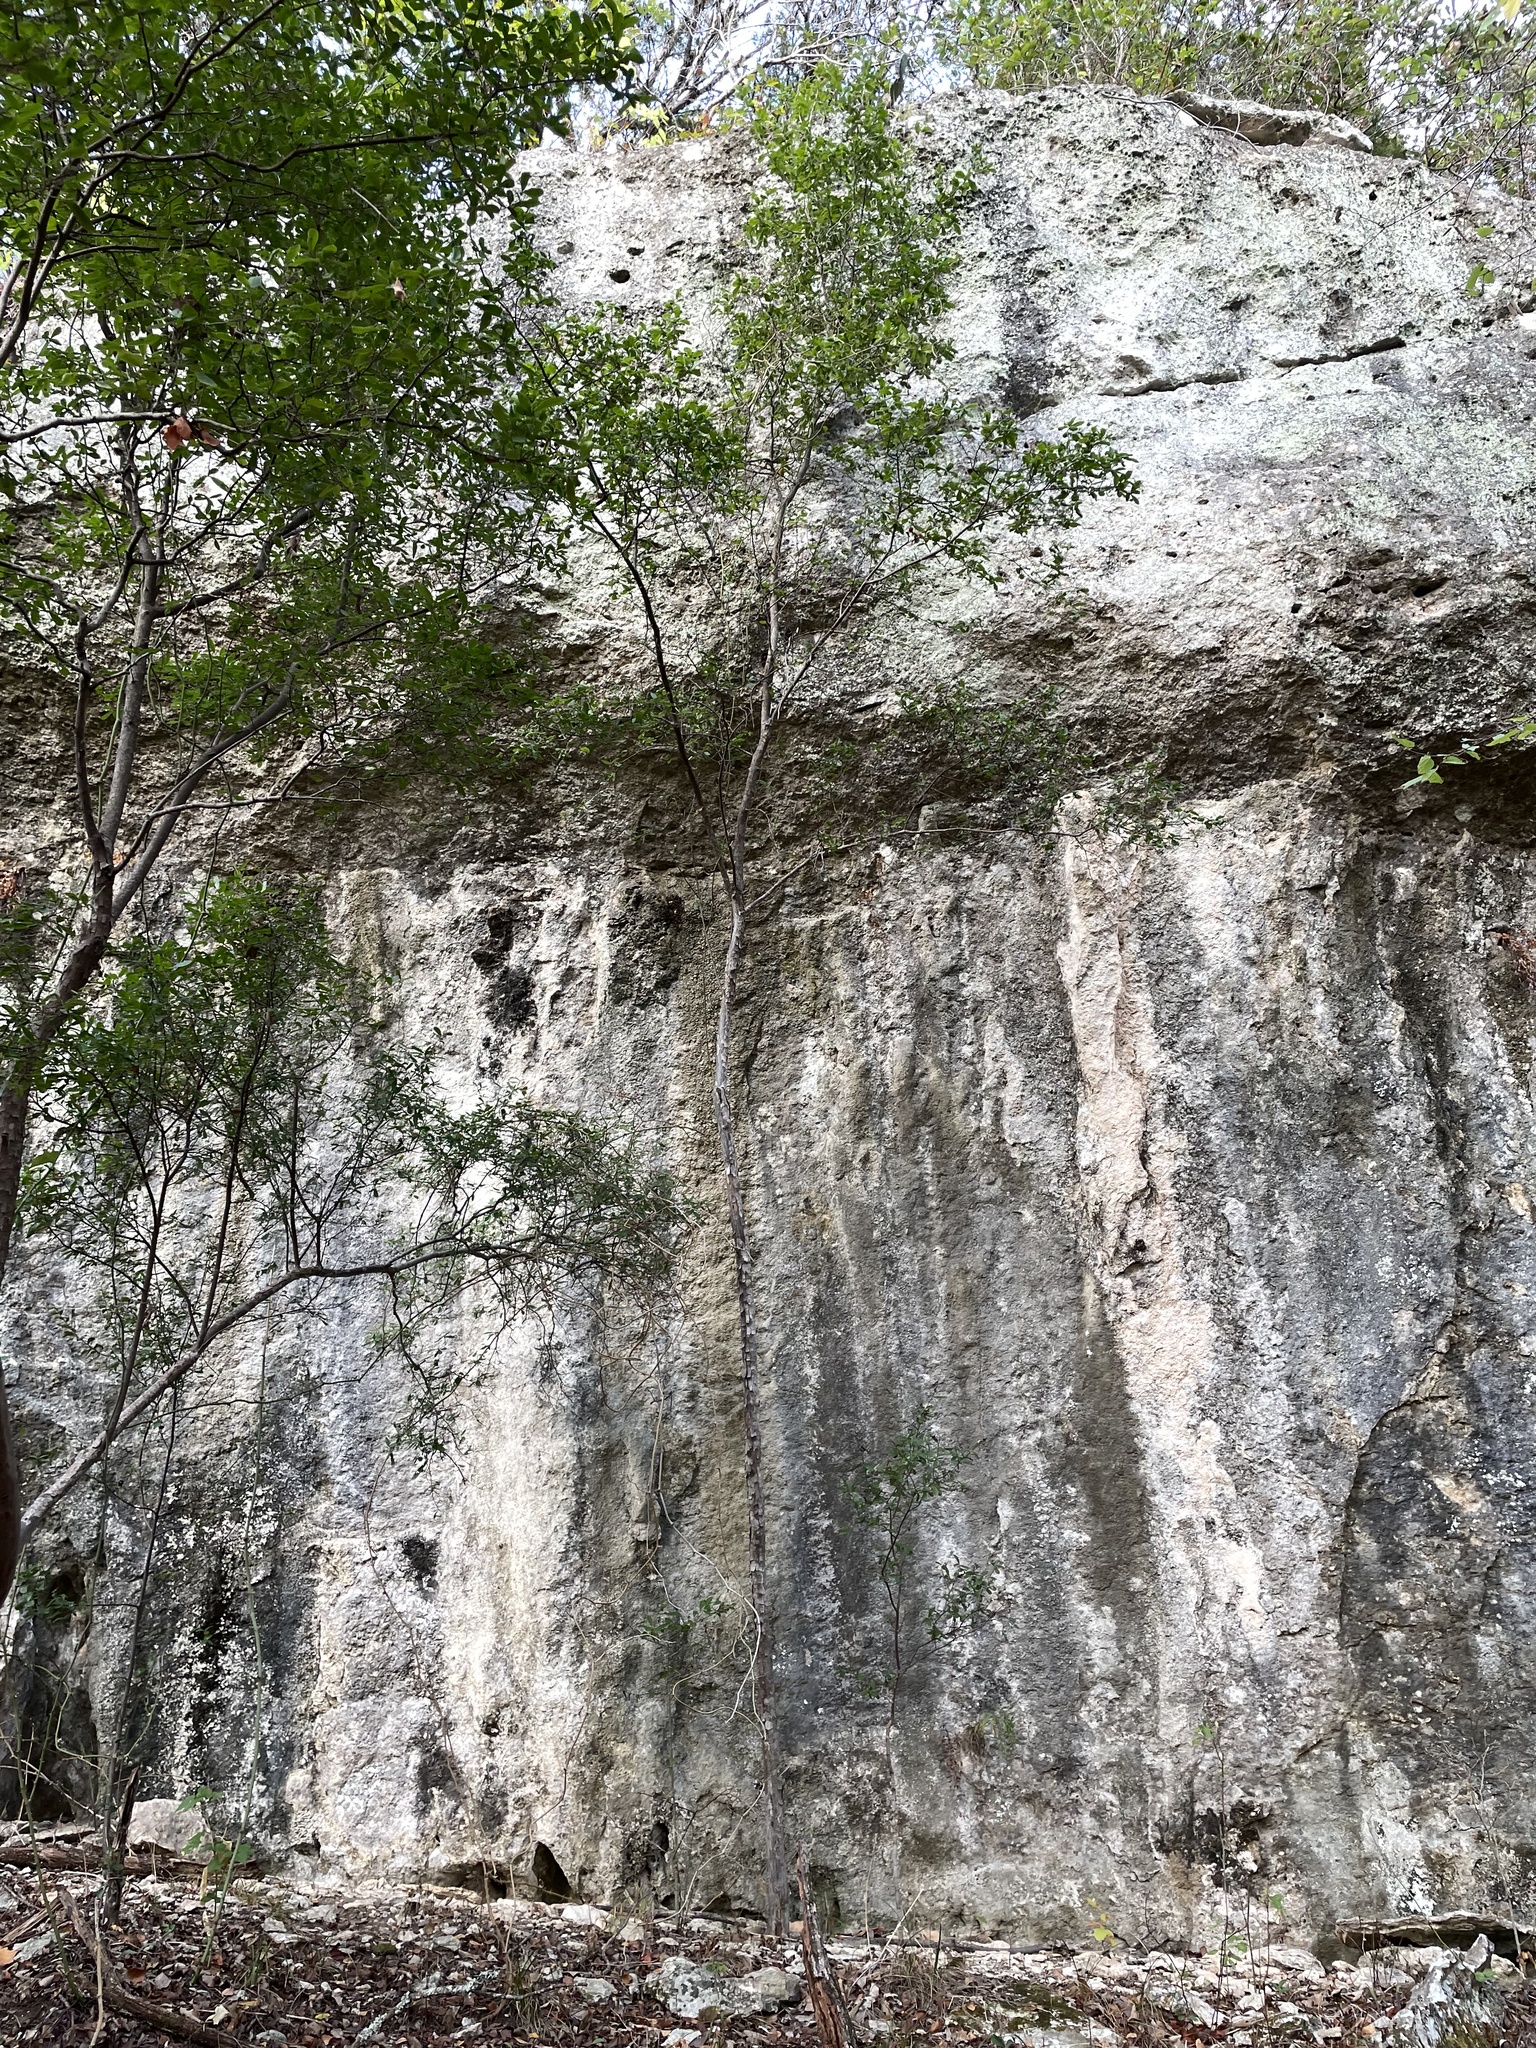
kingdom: Plantae
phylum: Tracheophyta
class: Magnoliopsida
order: Ericales
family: Ebenaceae
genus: Diospyros
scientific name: Diospyros texana
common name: Texas persimmon
